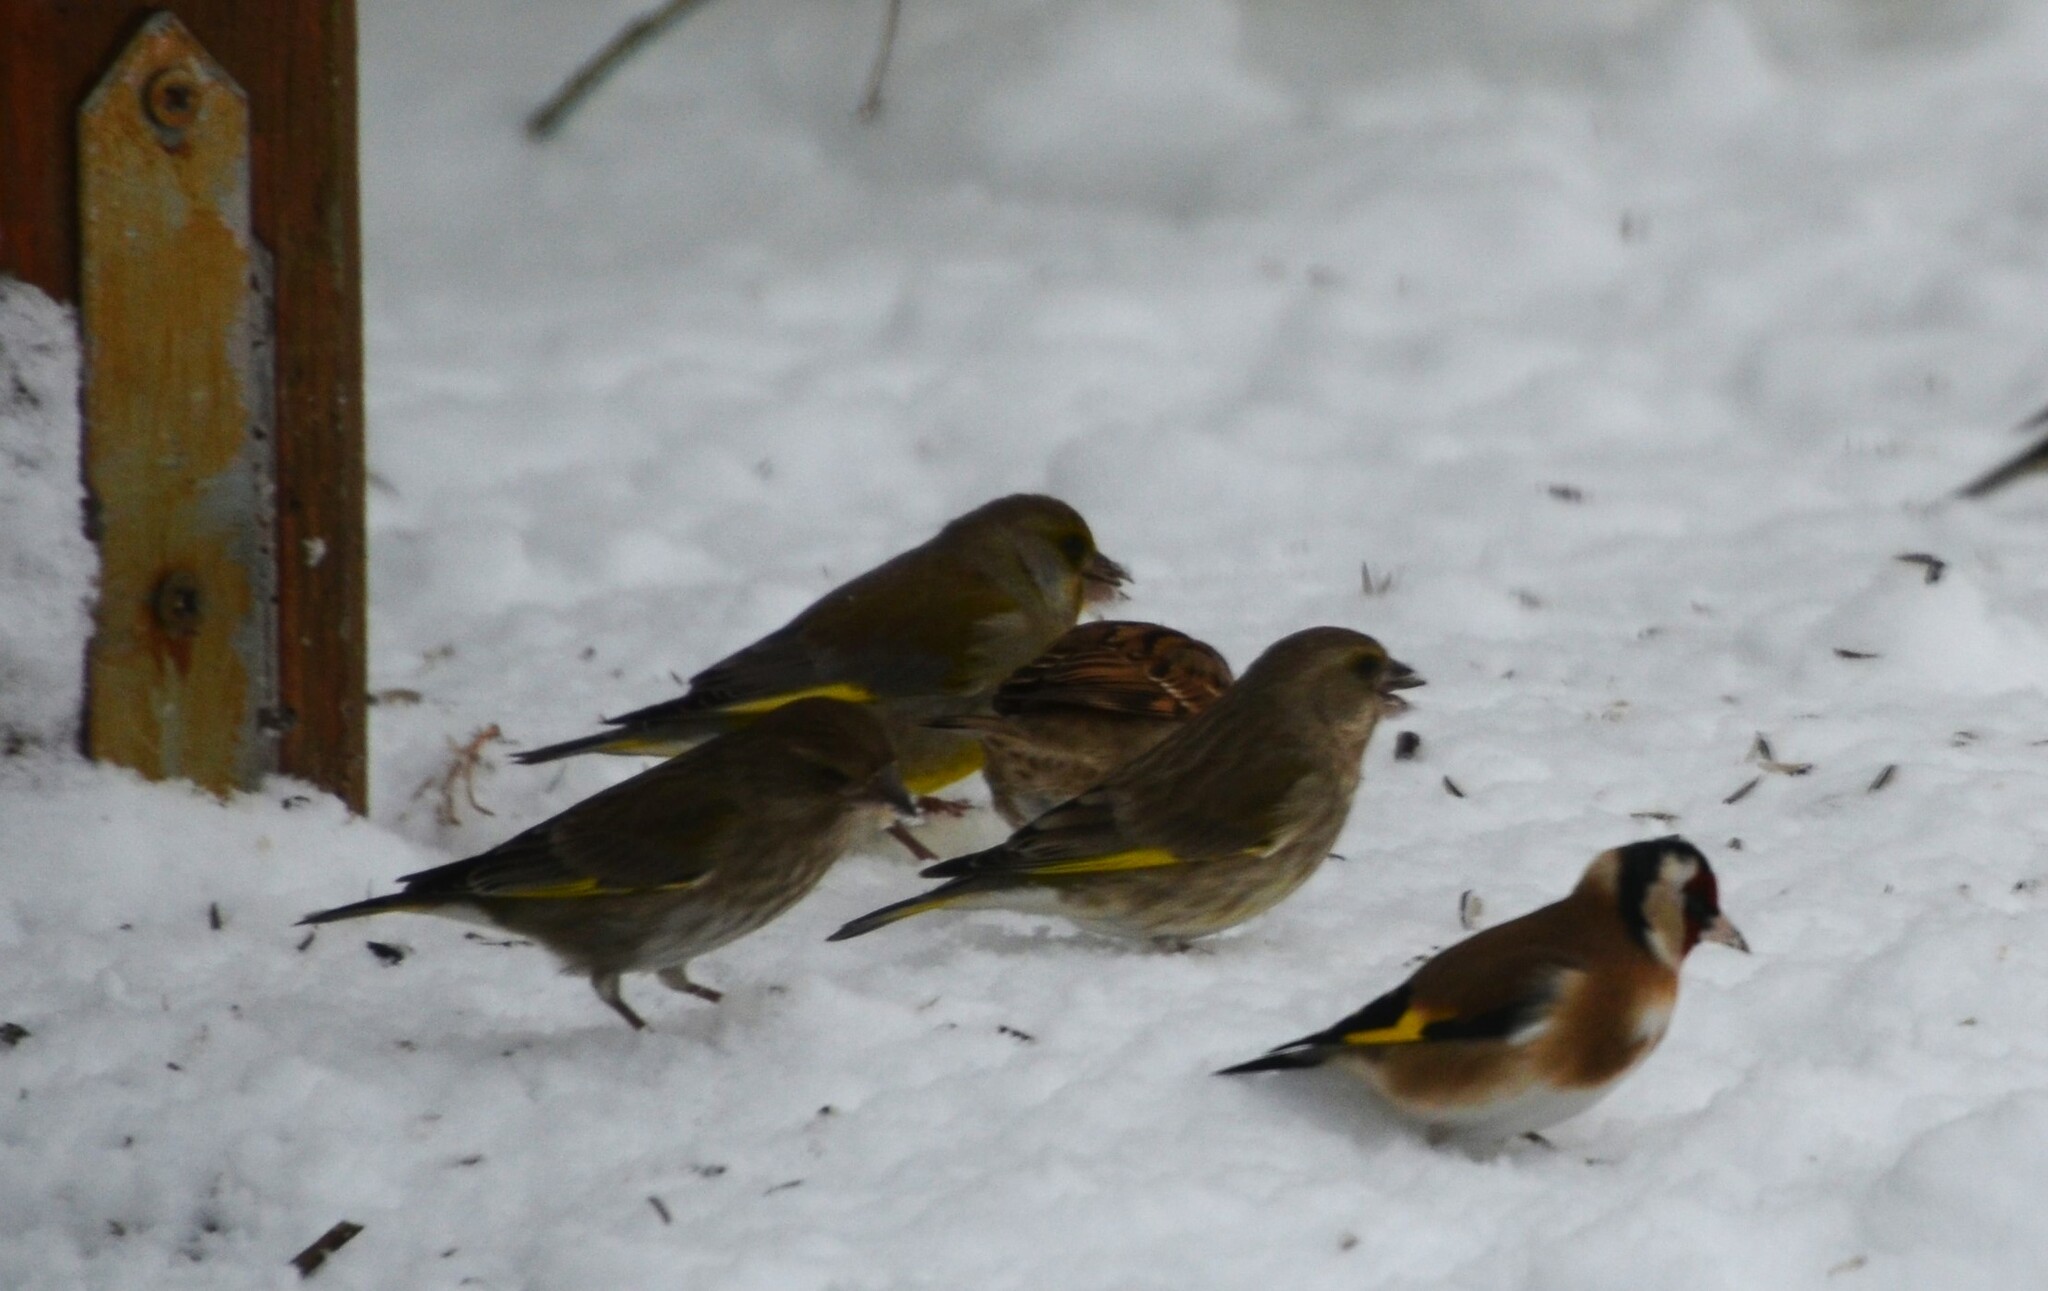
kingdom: Plantae
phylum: Tracheophyta
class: Liliopsida
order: Poales
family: Poaceae
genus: Chloris
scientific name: Chloris chloris
